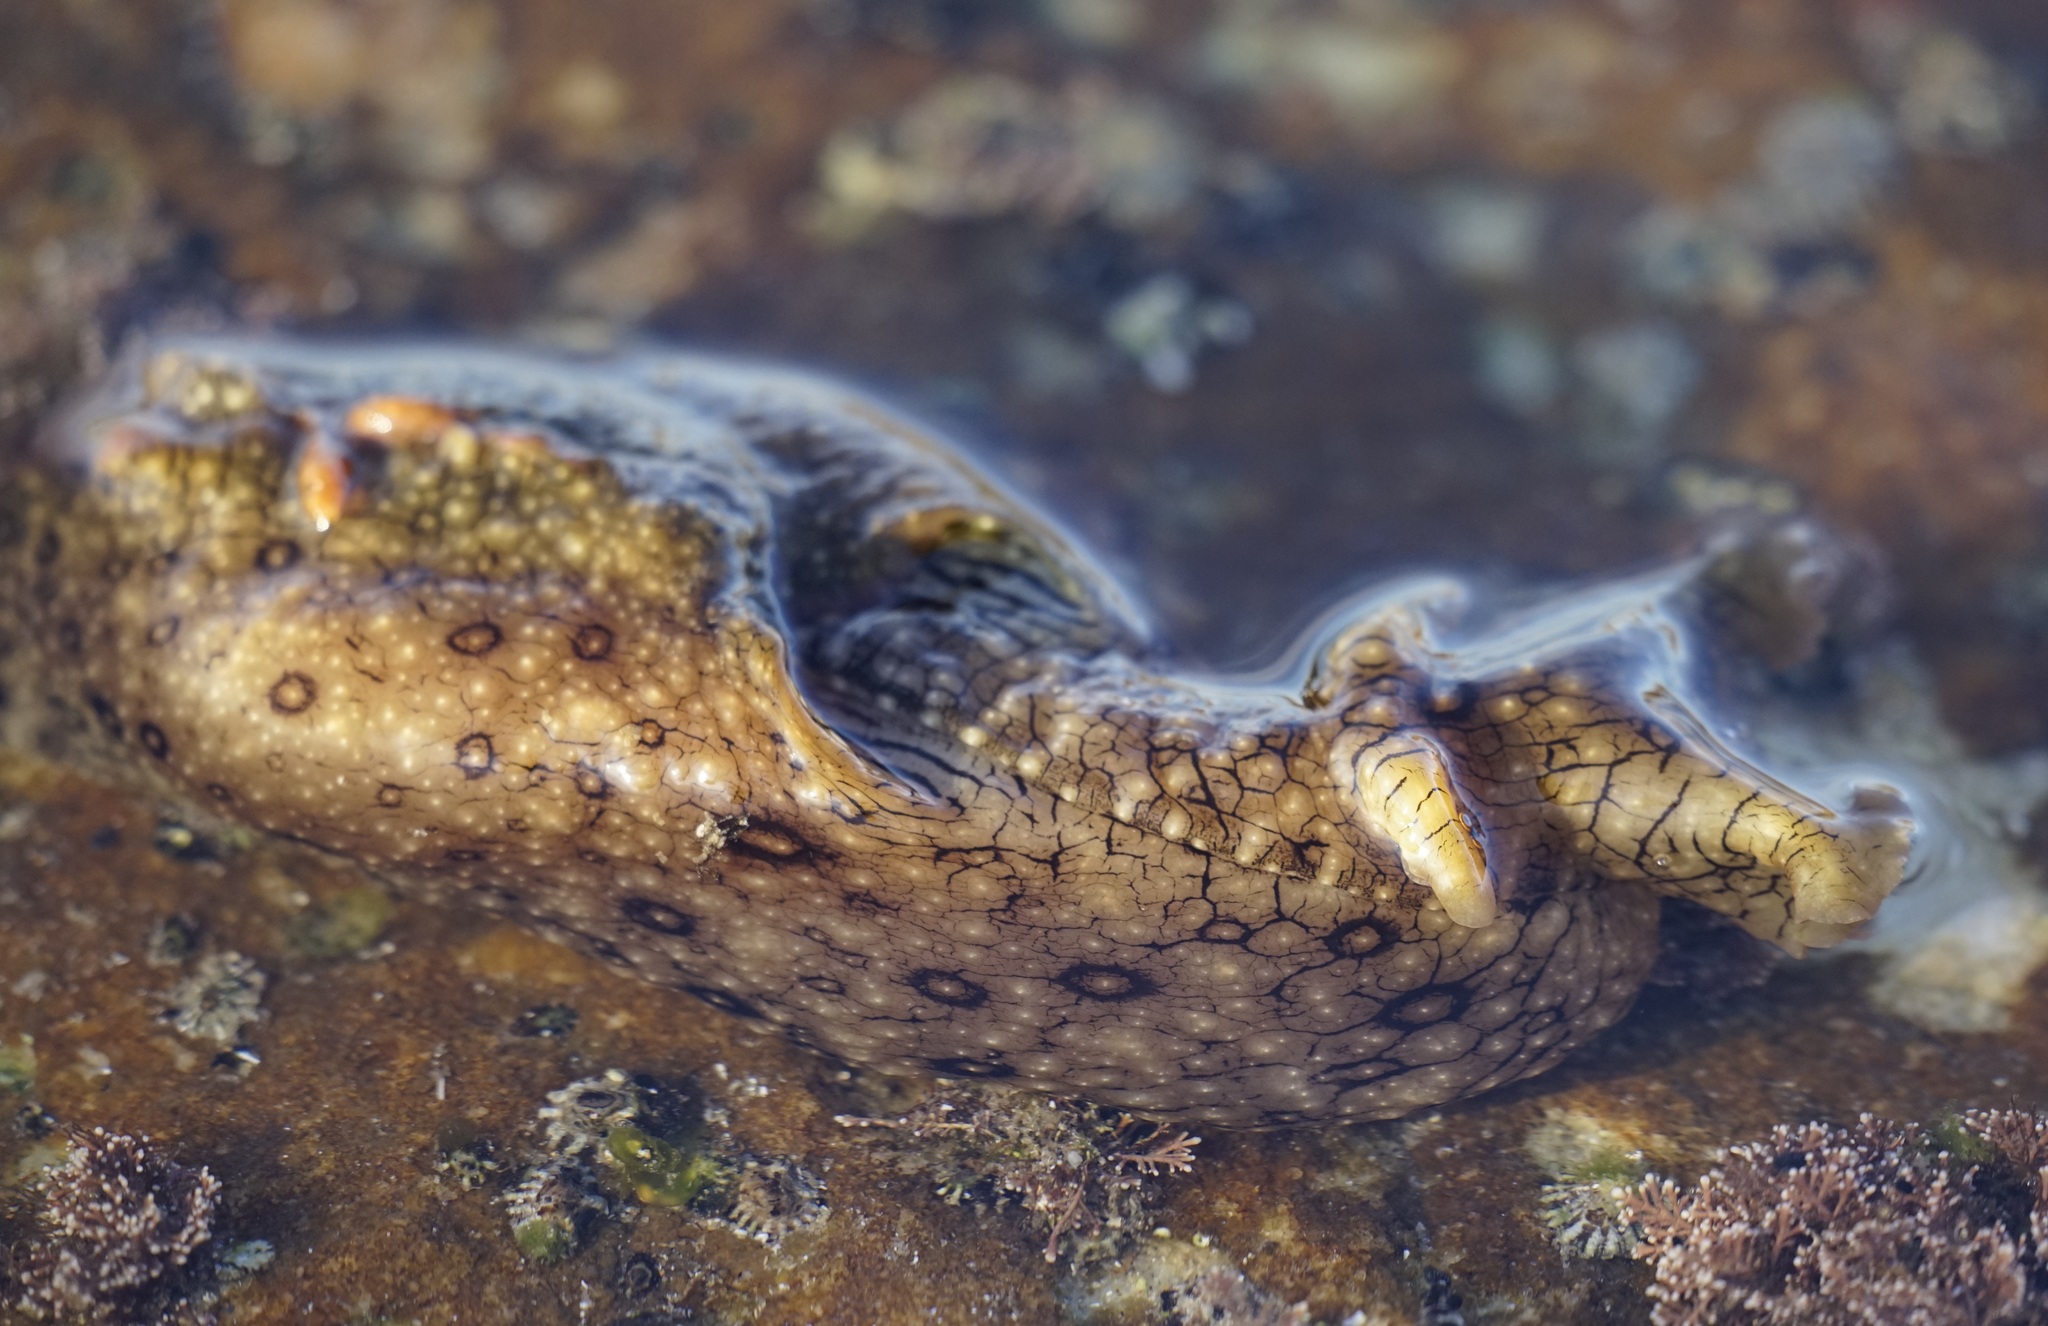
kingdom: Animalia
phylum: Mollusca
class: Gastropoda
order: Aplysiida
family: Aplysiidae
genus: Aplysia
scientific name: Aplysia argus
